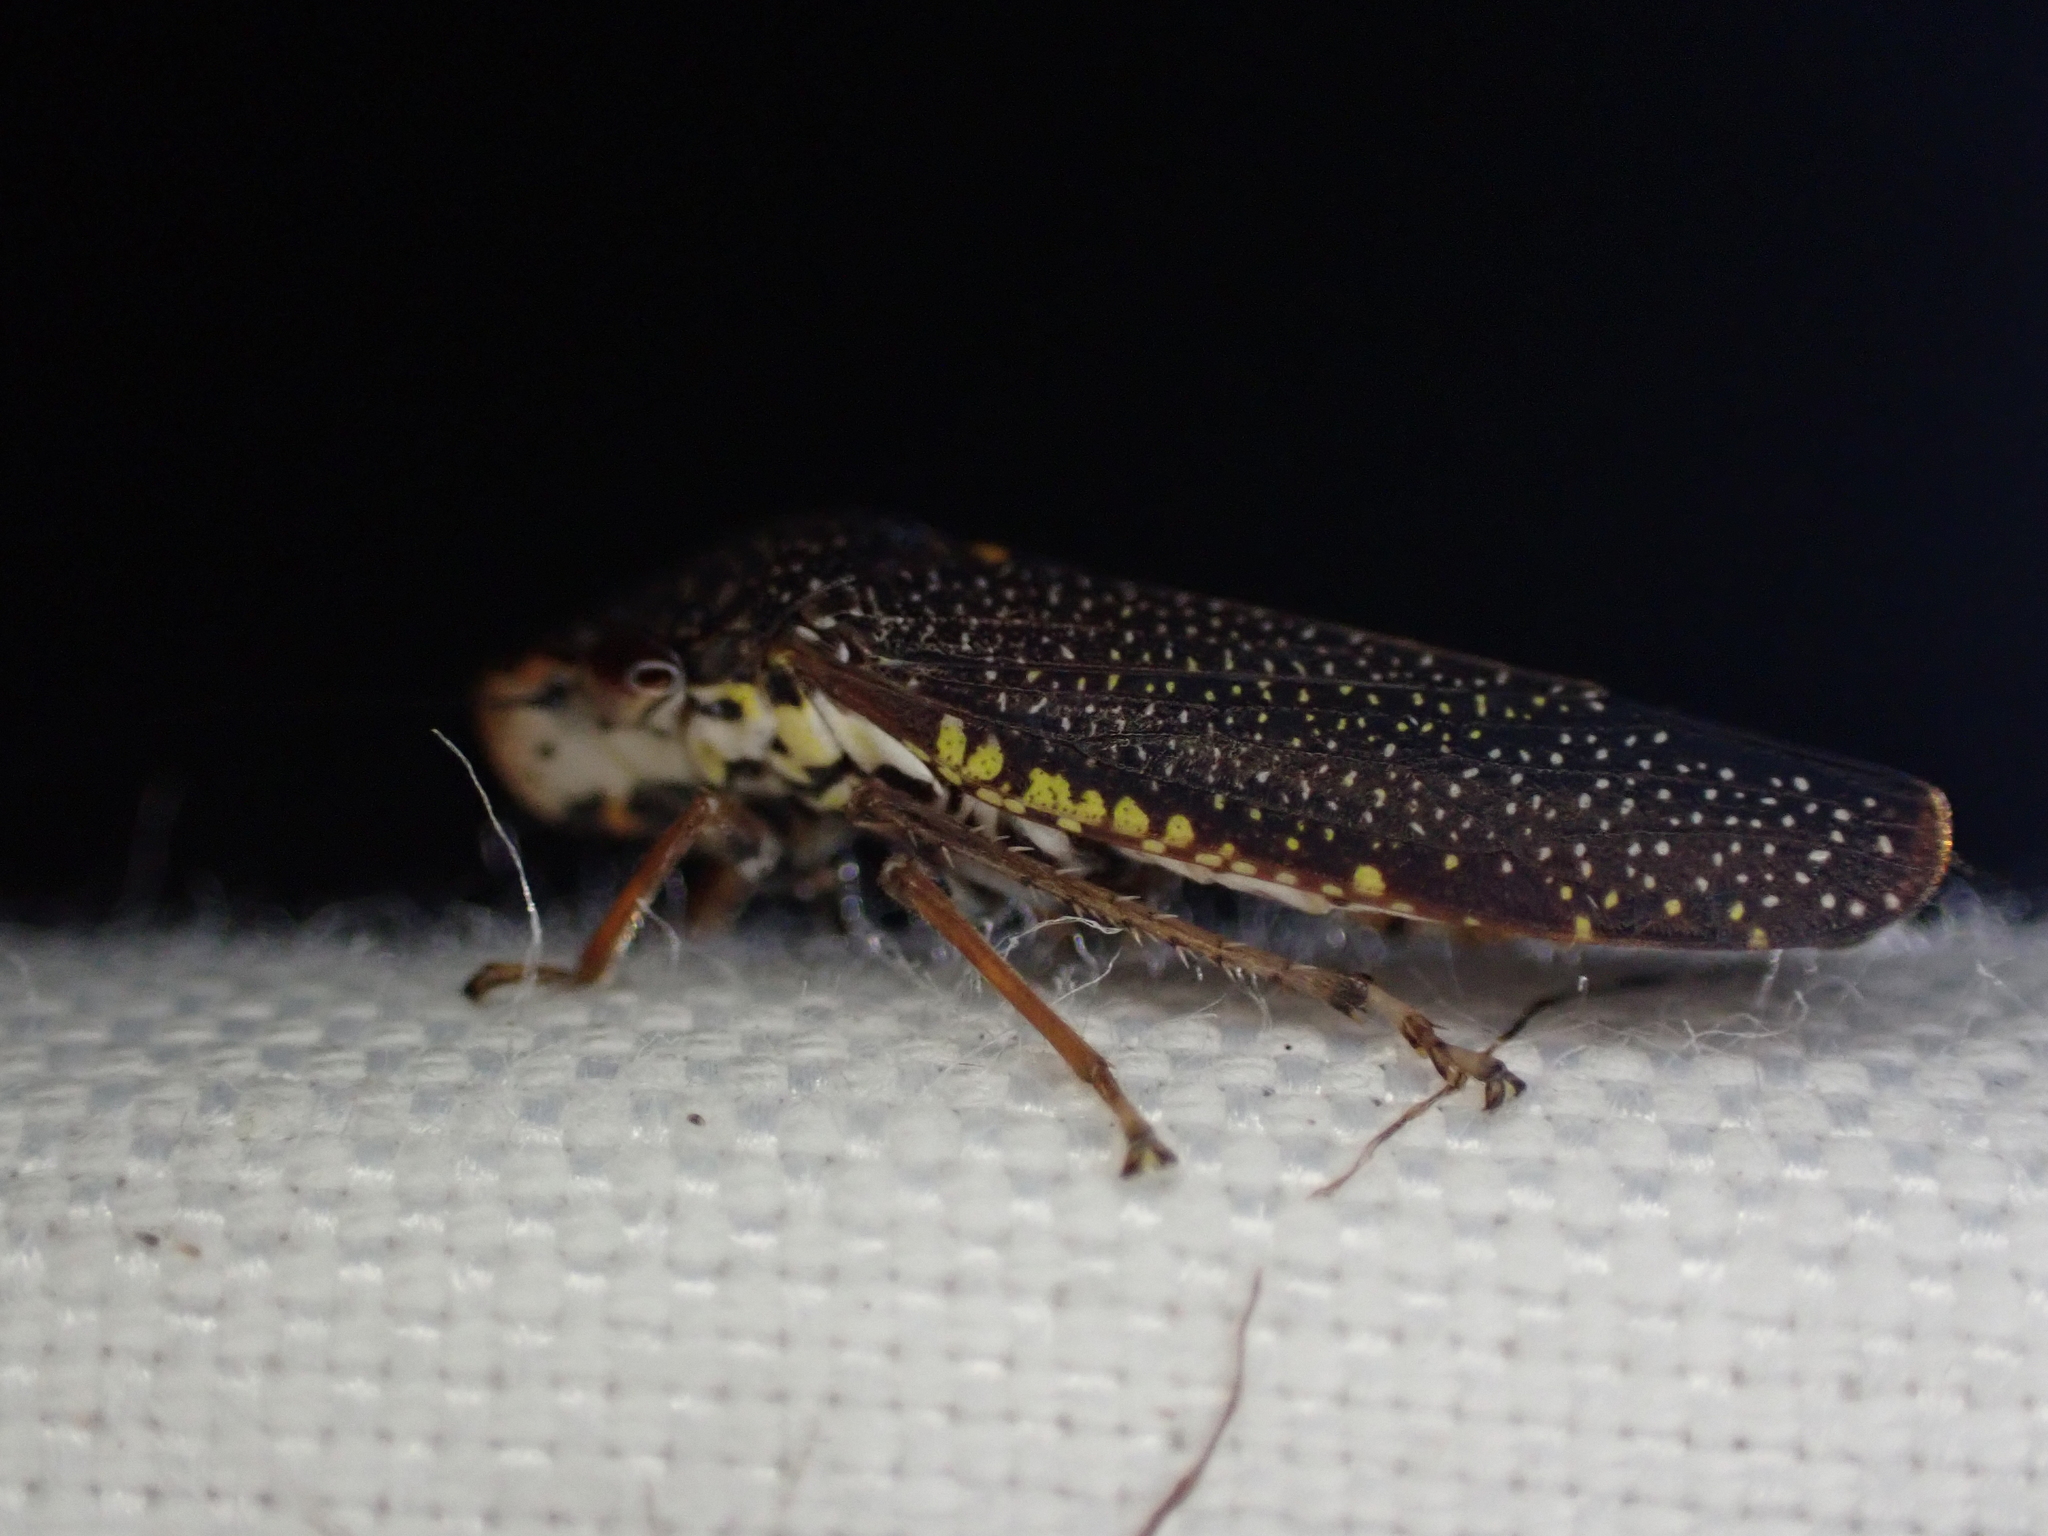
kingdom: Animalia
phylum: Arthropoda
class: Insecta
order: Hemiptera
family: Cicadellidae
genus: Paraulacizes
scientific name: Paraulacizes irrorata
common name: Speckled sharpshooter
